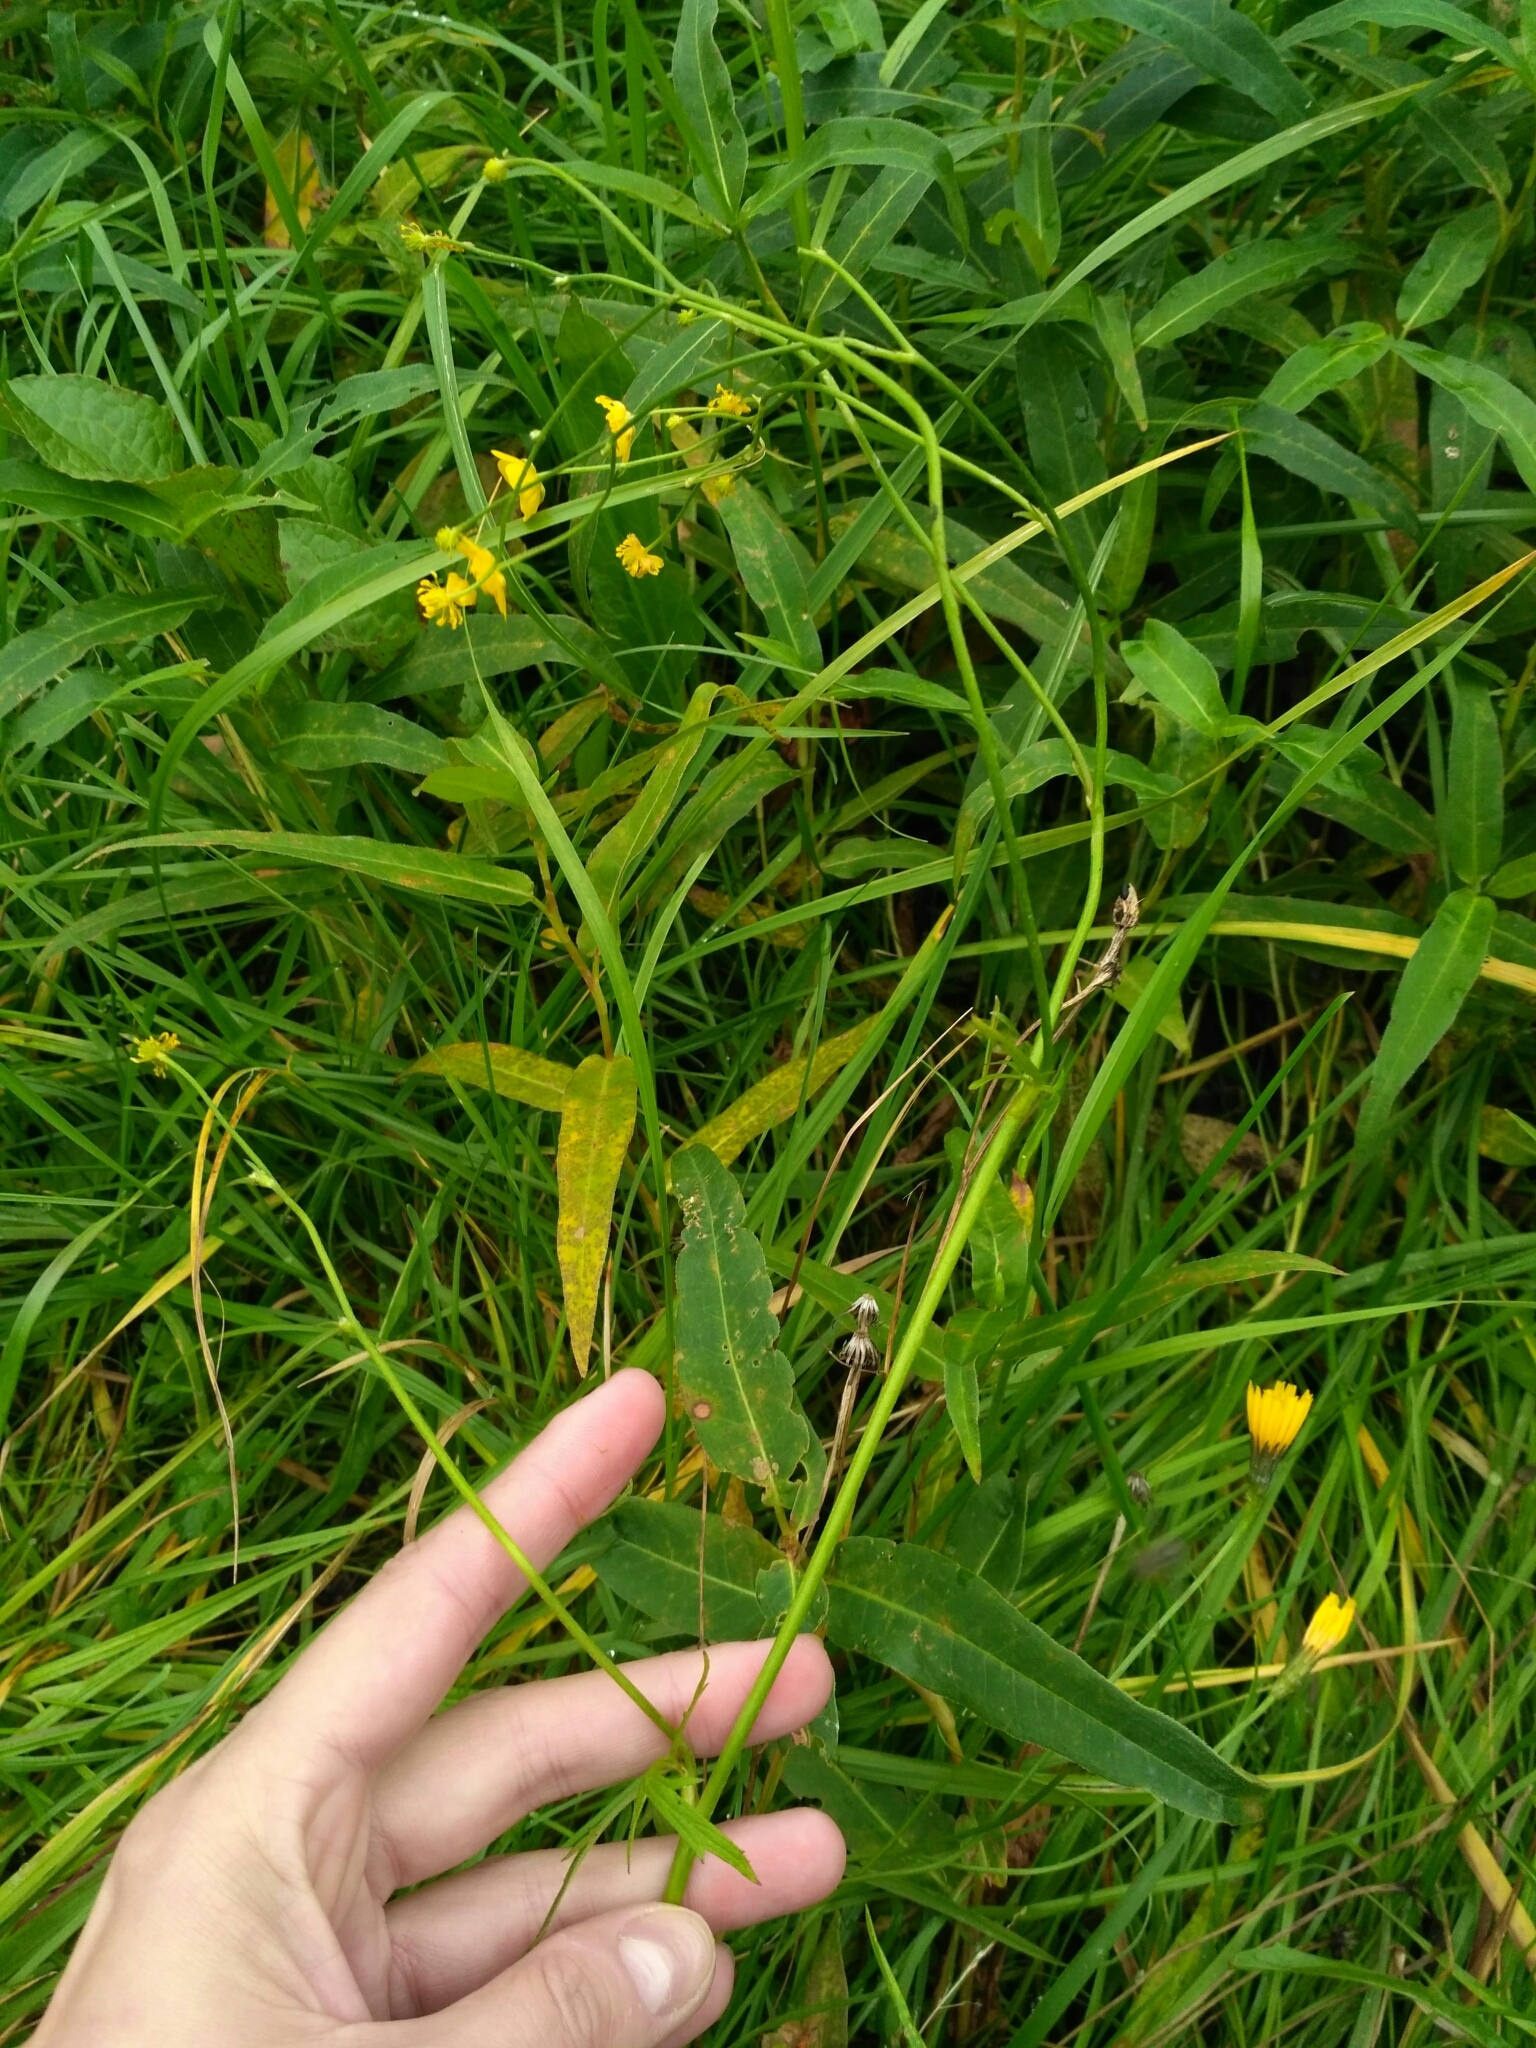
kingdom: Plantae
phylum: Tracheophyta
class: Magnoliopsida
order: Ranunculales
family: Ranunculaceae
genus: Ranunculus
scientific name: Ranunculus acris
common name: Meadow buttercup
